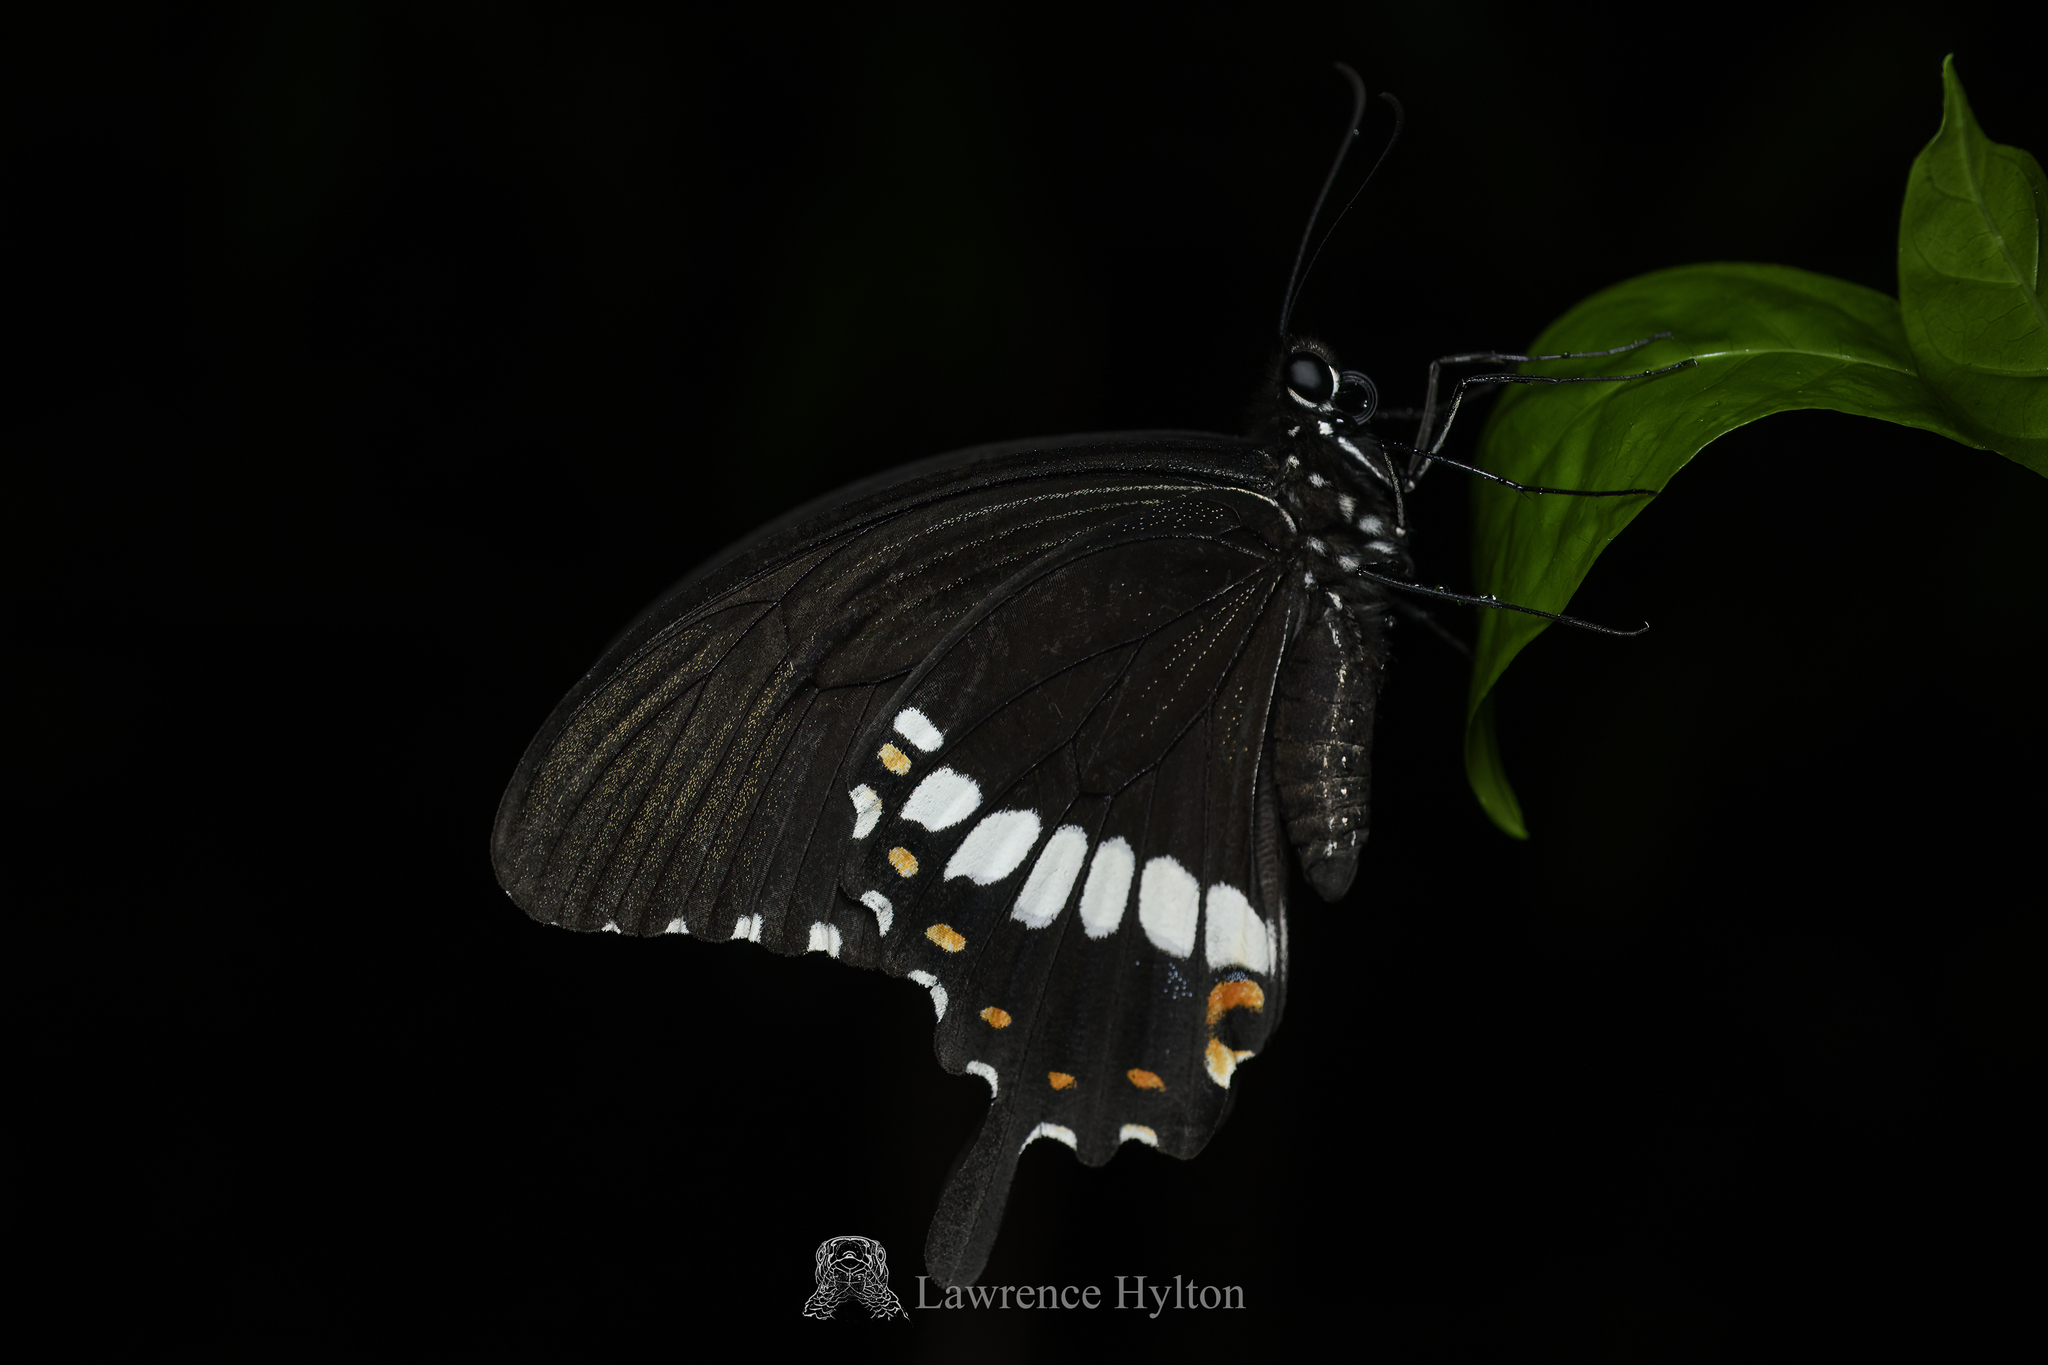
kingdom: Animalia
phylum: Arthropoda
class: Insecta
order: Lepidoptera
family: Papilionidae
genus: Papilio
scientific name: Papilio polytes
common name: Common mormon
